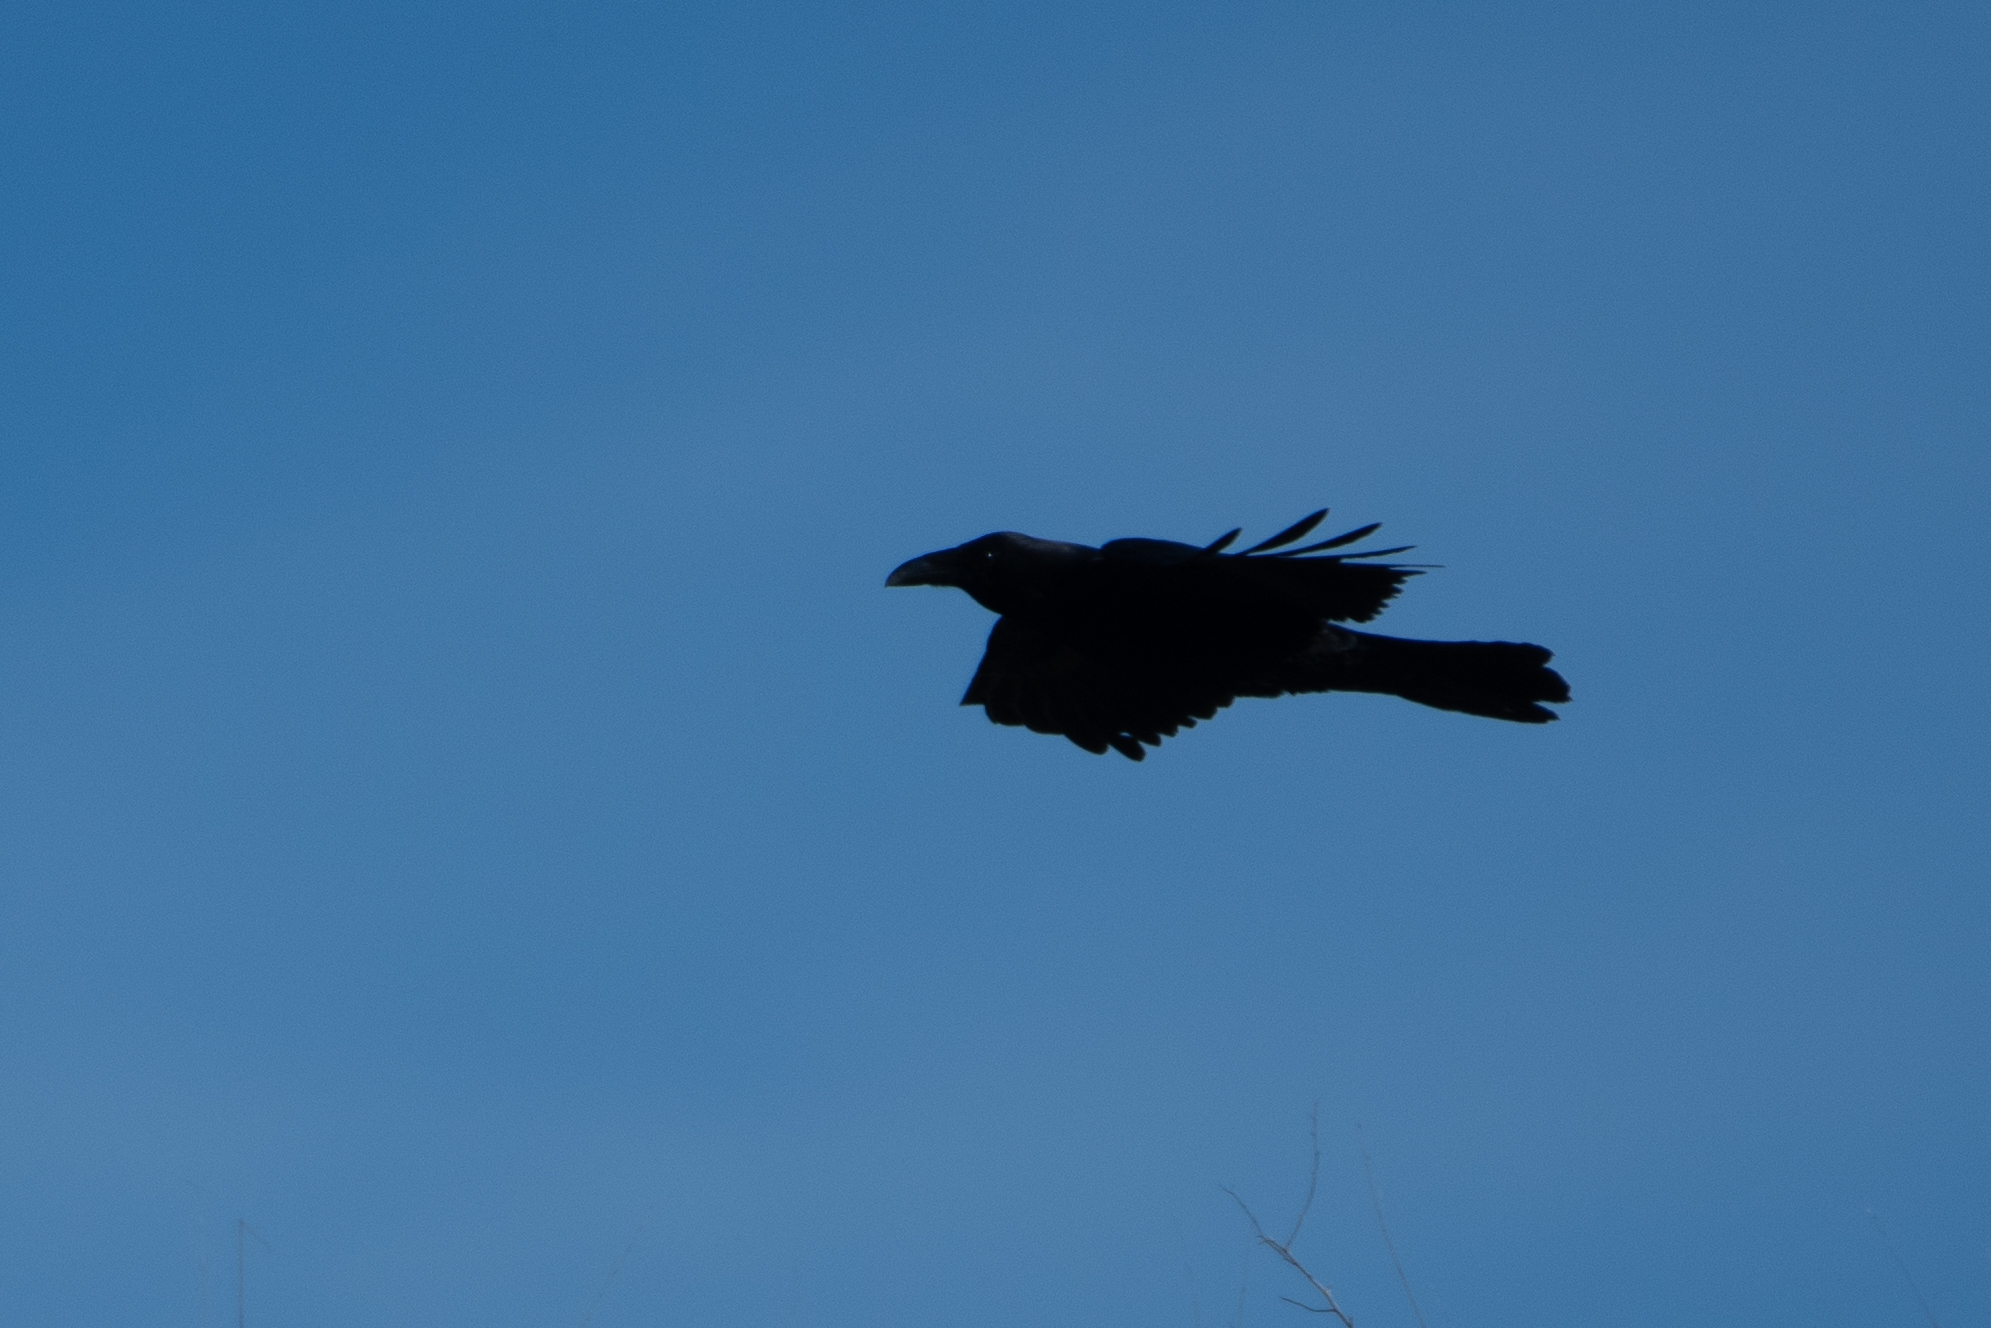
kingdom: Animalia
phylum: Chordata
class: Aves
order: Passeriformes
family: Corvidae
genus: Corvus
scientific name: Corvus corax
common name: Common raven
